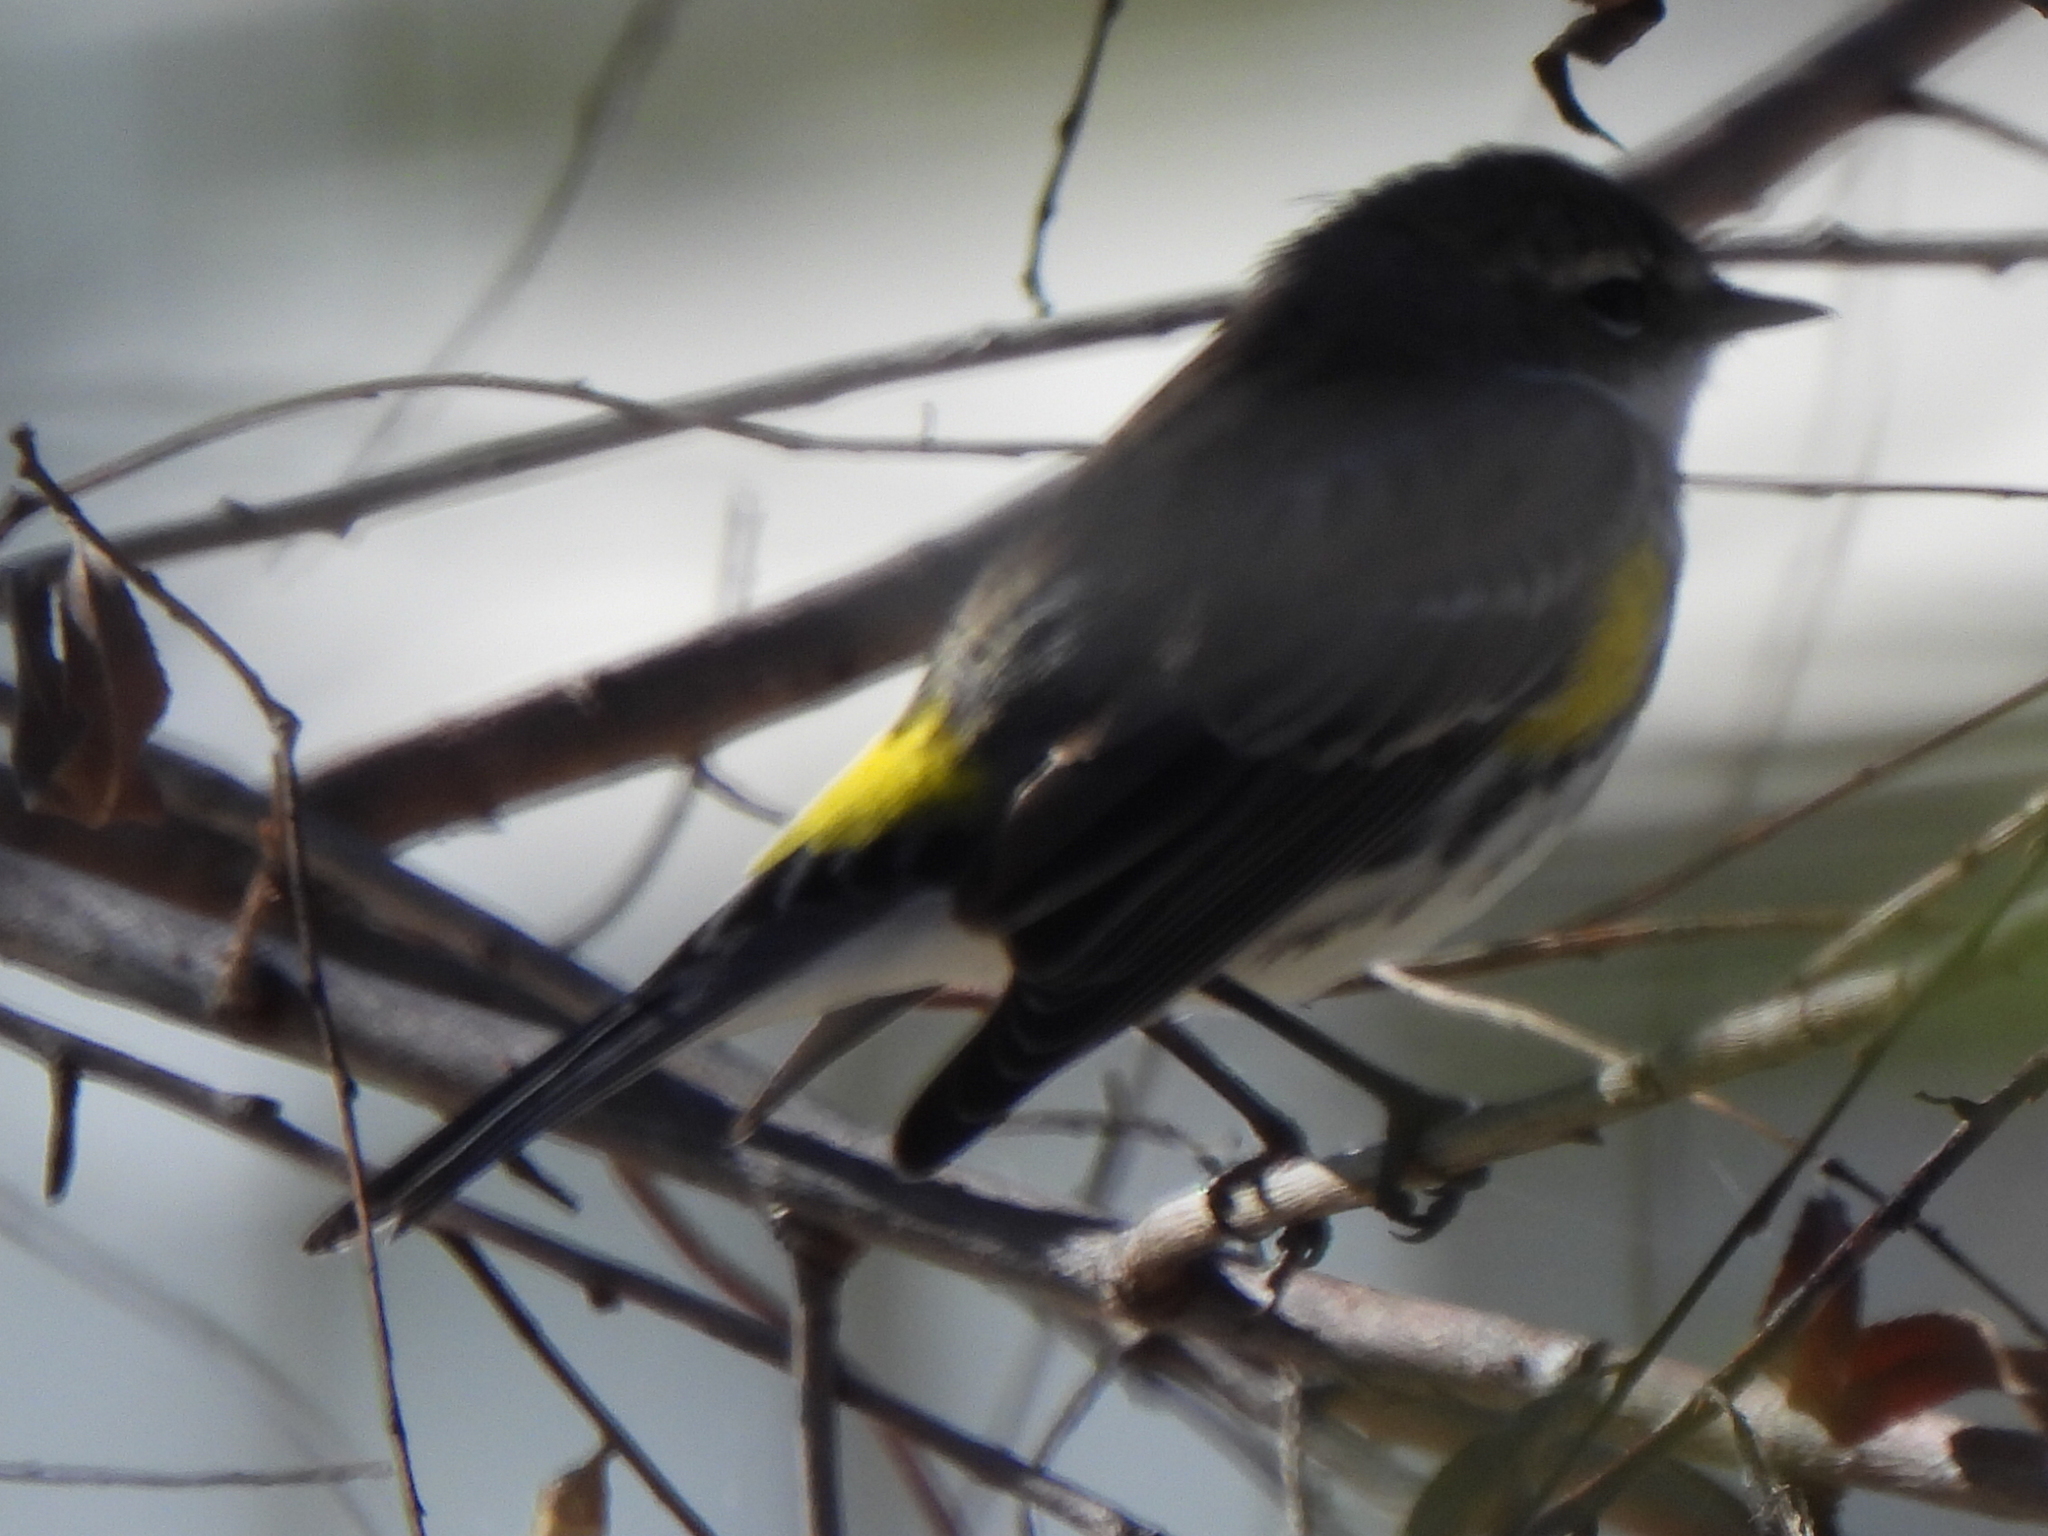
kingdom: Animalia
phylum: Chordata
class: Aves
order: Passeriformes
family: Parulidae
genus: Setophaga
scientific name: Setophaga coronata
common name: Myrtle warbler
